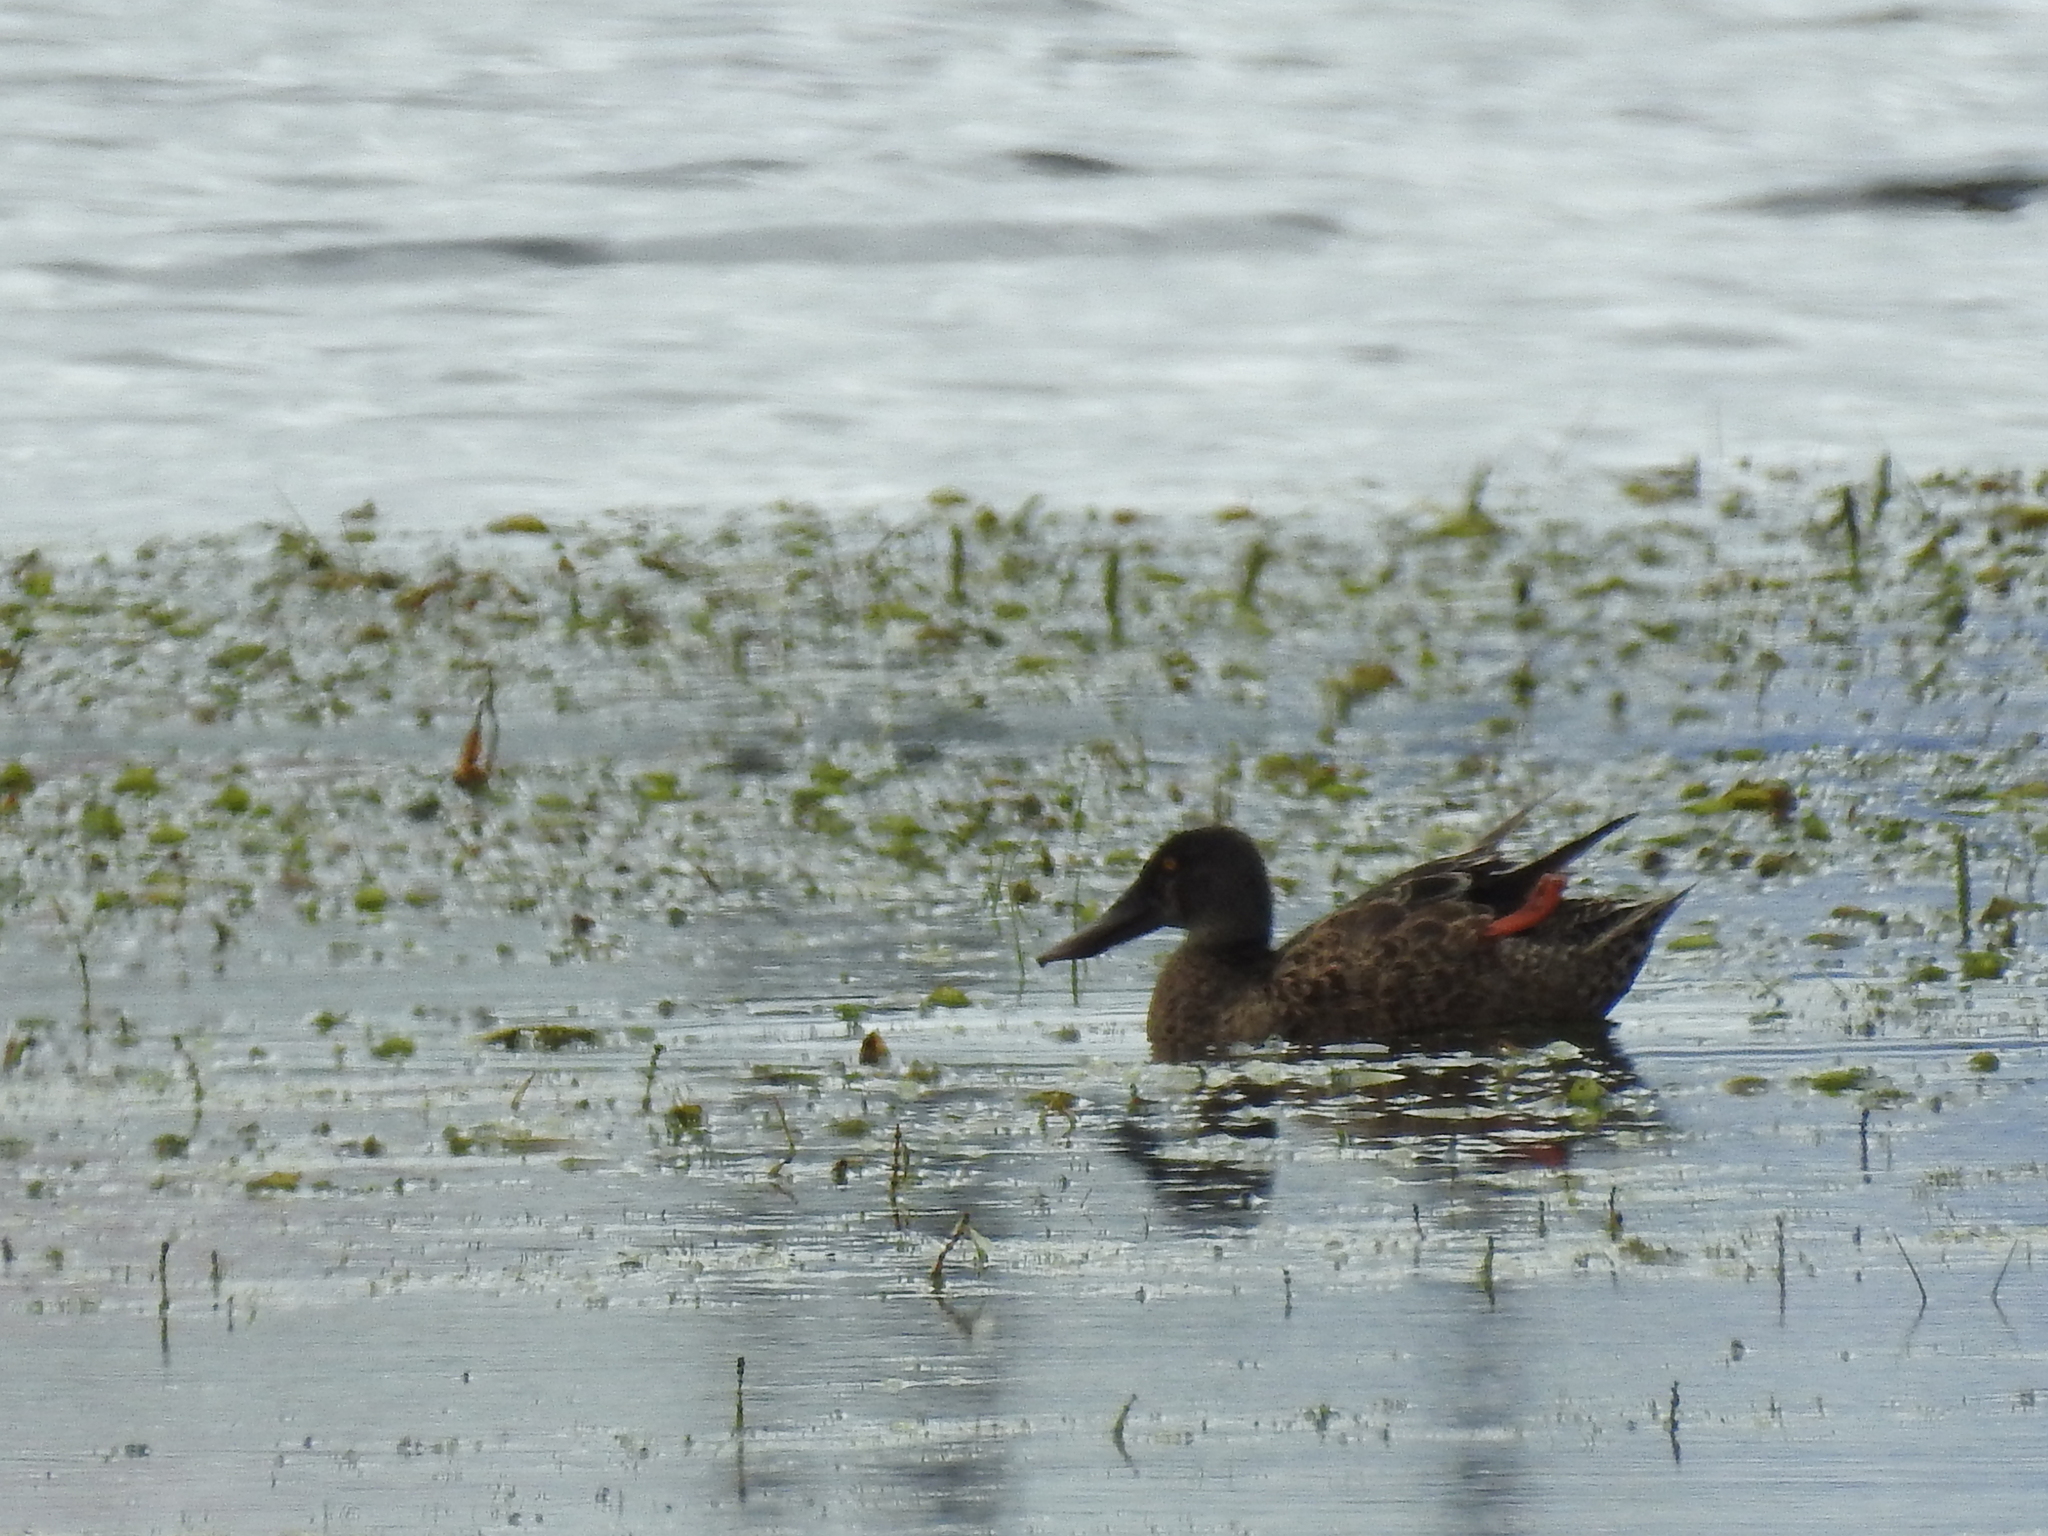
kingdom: Animalia
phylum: Chordata
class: Aves
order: Anseriformes
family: Anatidae
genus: Spatula
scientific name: Spatula clypeata
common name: Northern shoveler
